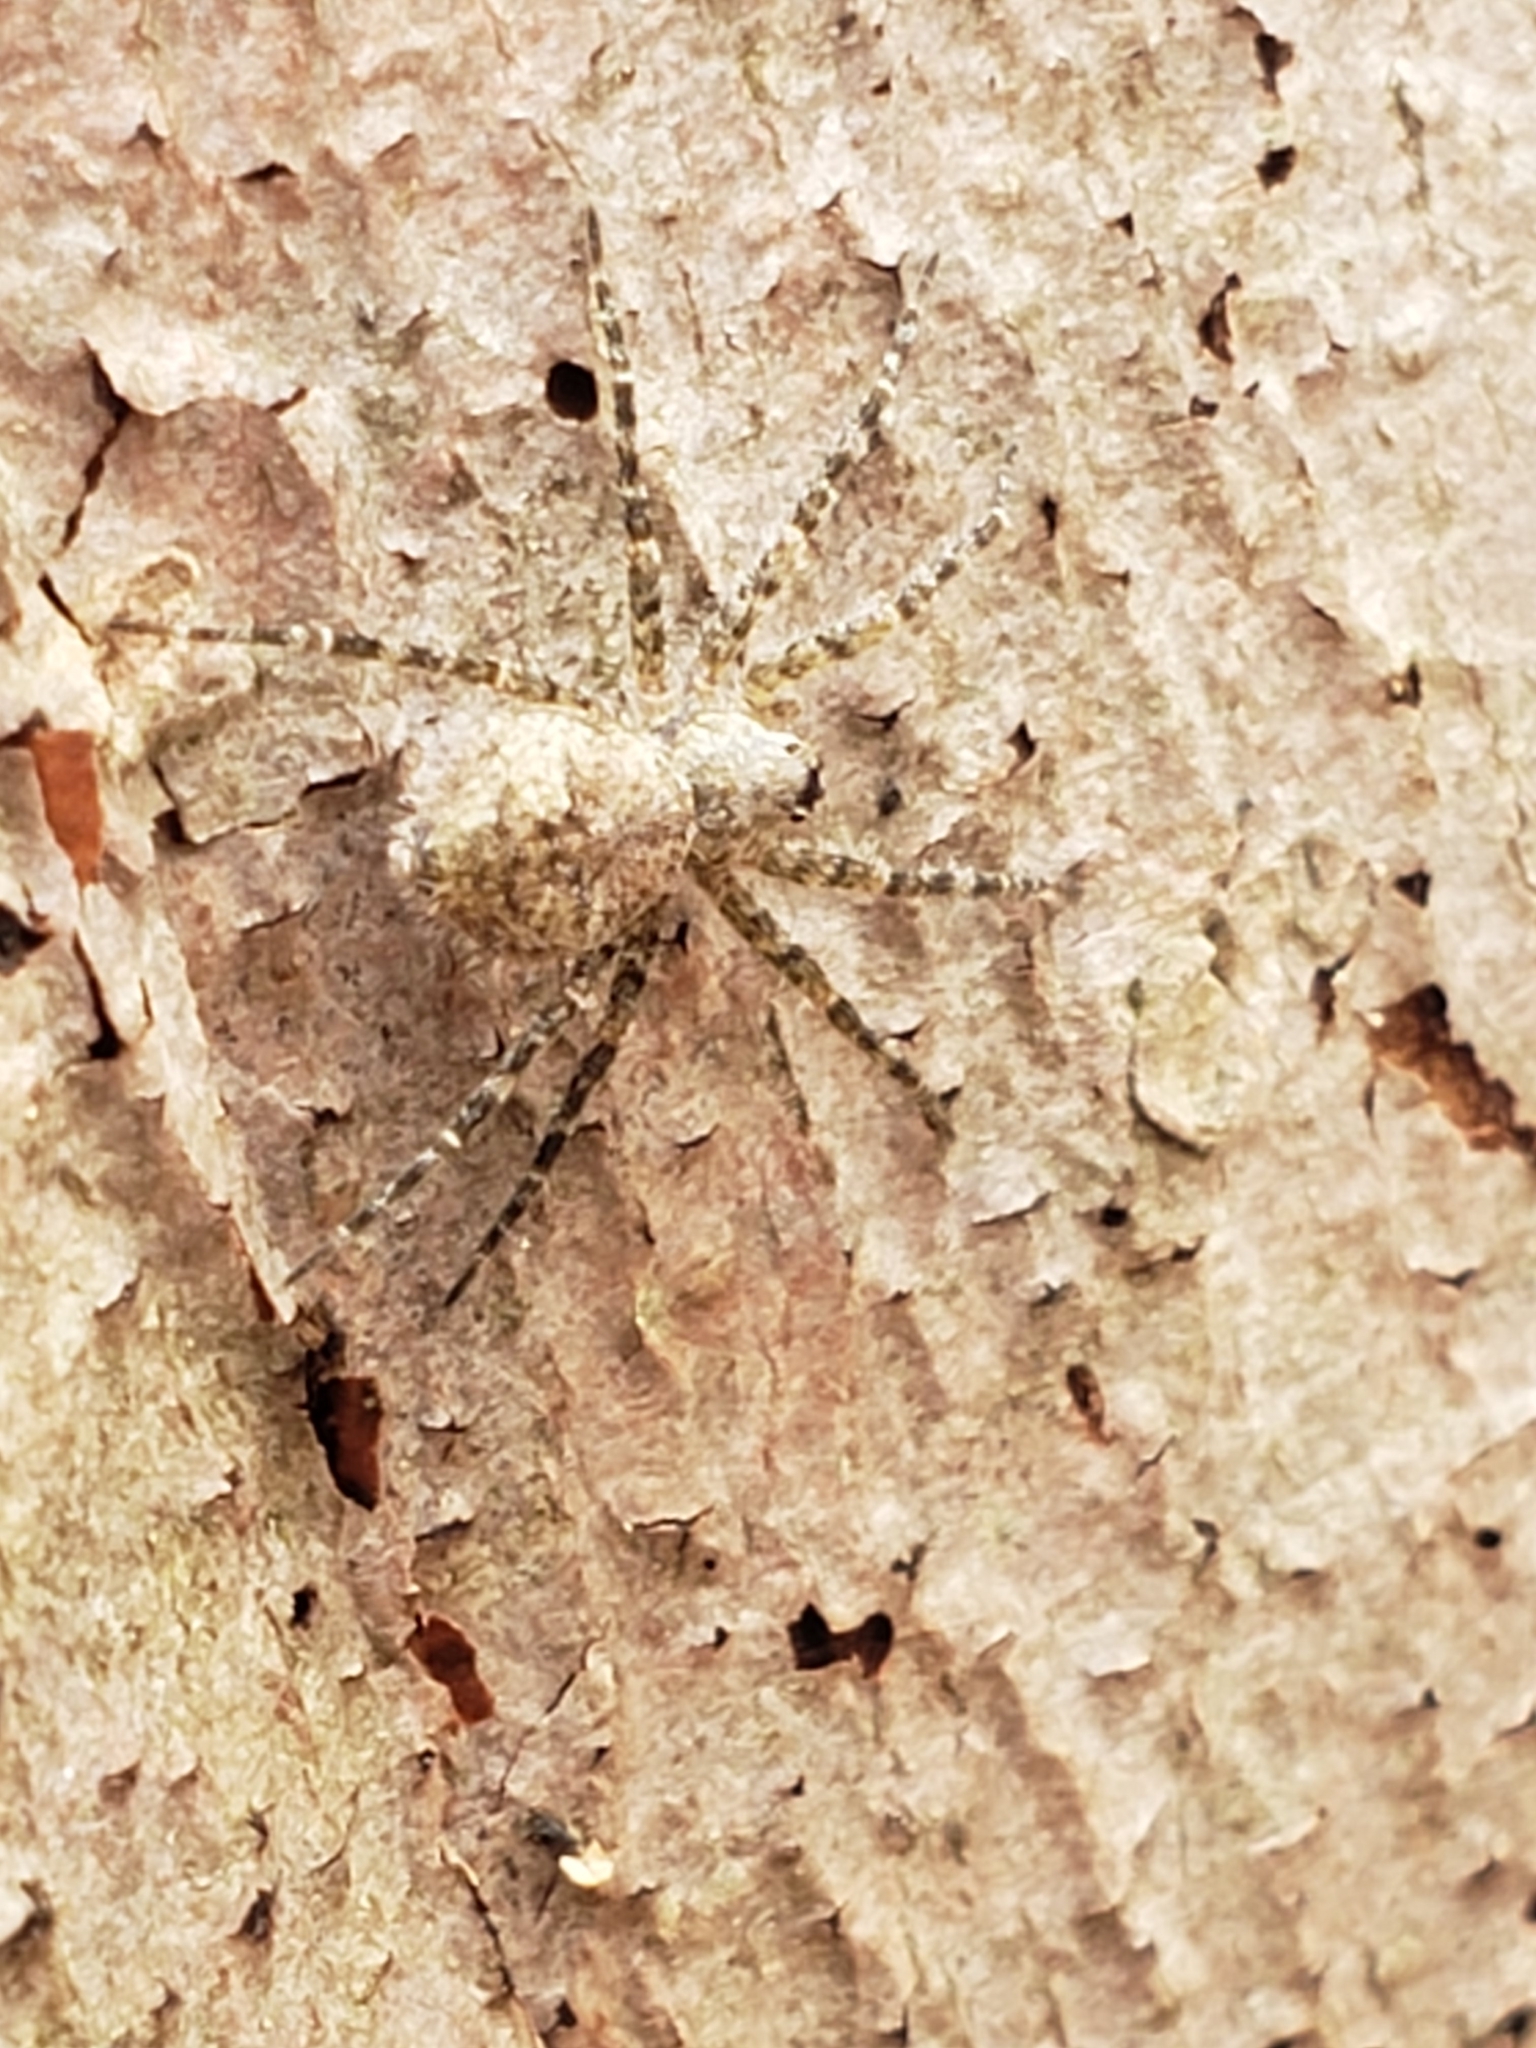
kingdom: Animalia
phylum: Arthropoda
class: Arachnida
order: Araneae
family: Pisauridae
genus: Dolomedes
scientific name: Dolomedes albineus
